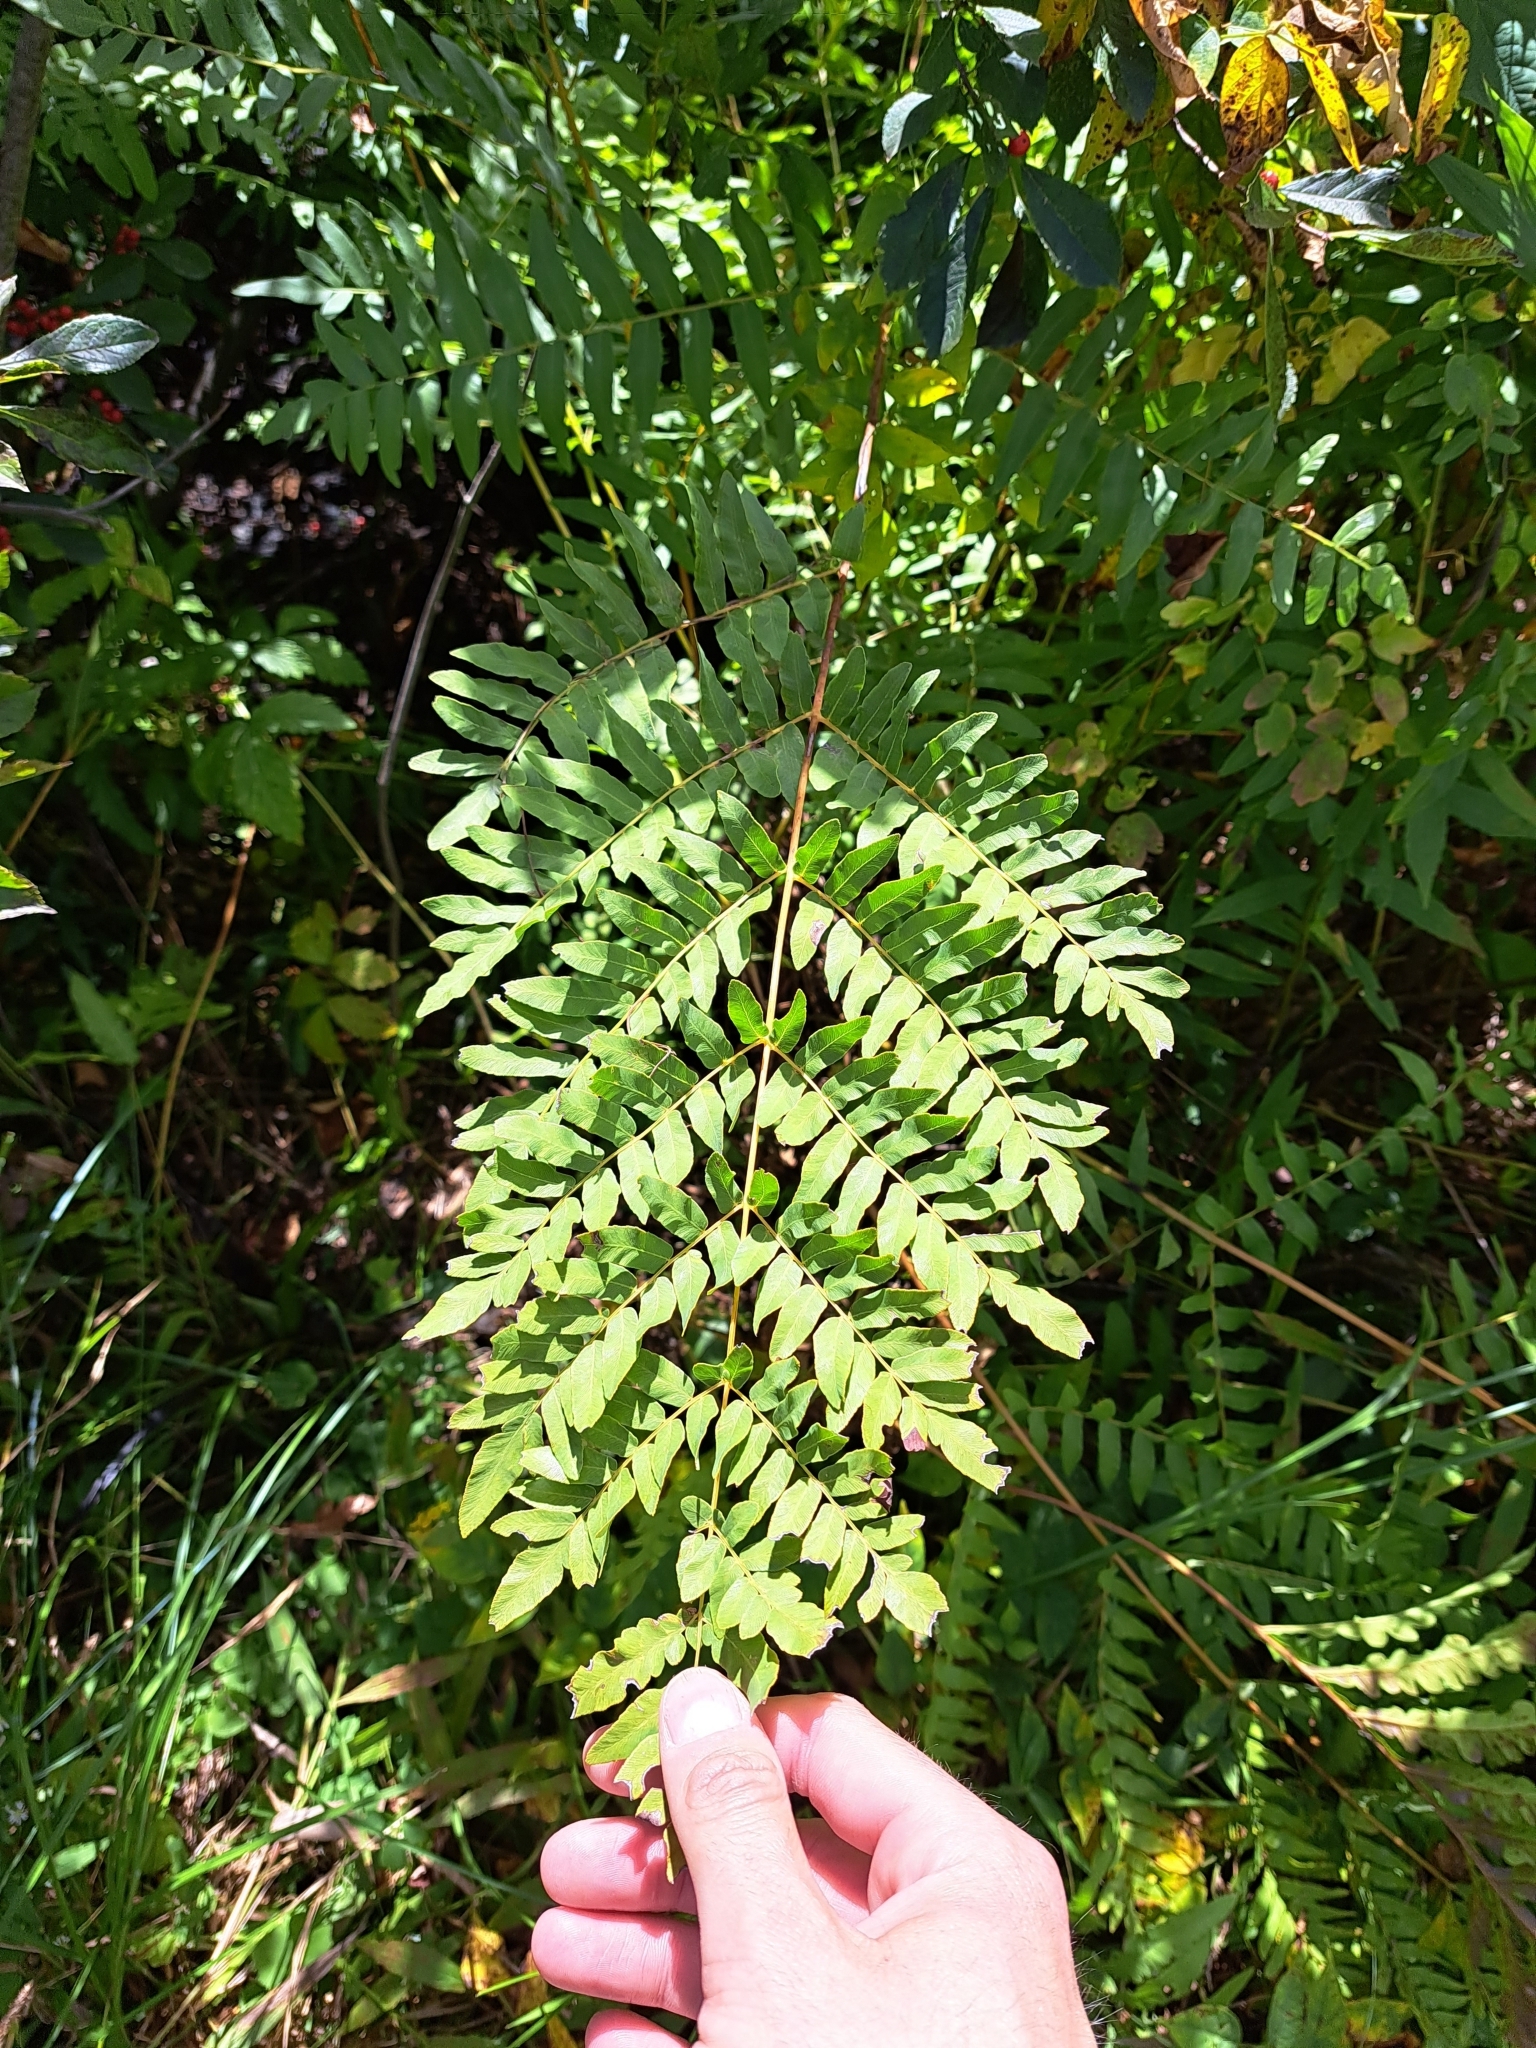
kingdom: Plantae
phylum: Tracheophyta
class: Polypodiopsida
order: Osmundales
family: Osmundaceae
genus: Osmunda
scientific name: Osmunda spectabilis
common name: American royal fern
